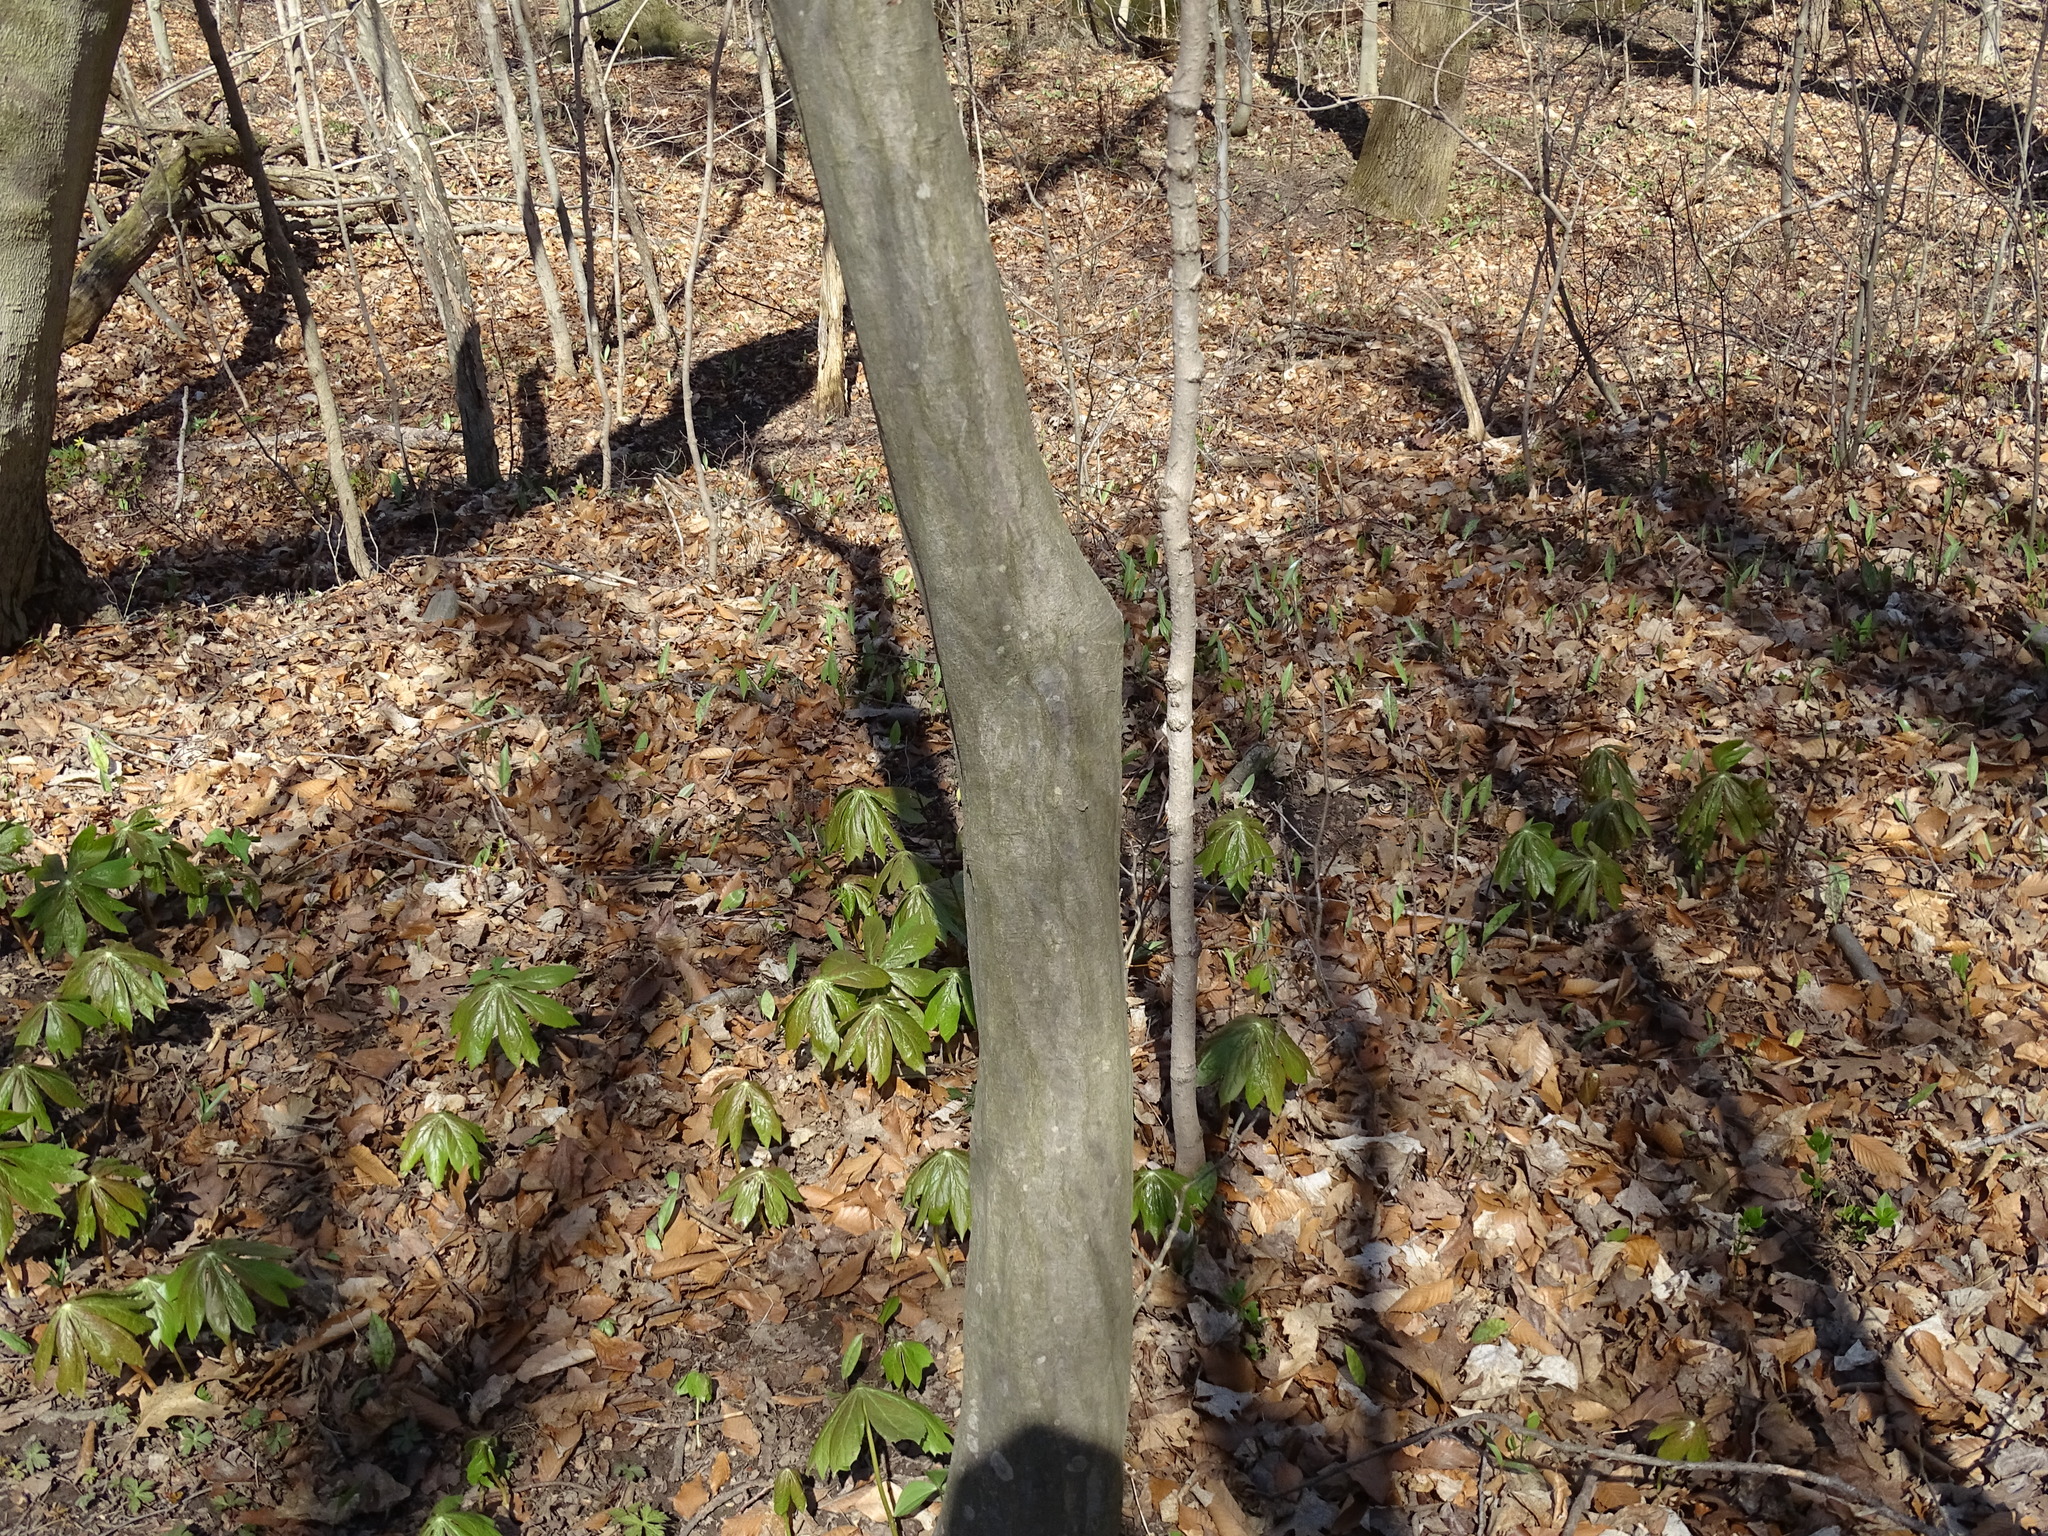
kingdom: Plantae
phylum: Tracheophyta
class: Magnoliopsida
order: Fagales
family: Betulaceae
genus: Carpinus
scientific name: Carpinus caroliniana
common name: American hornbeam
